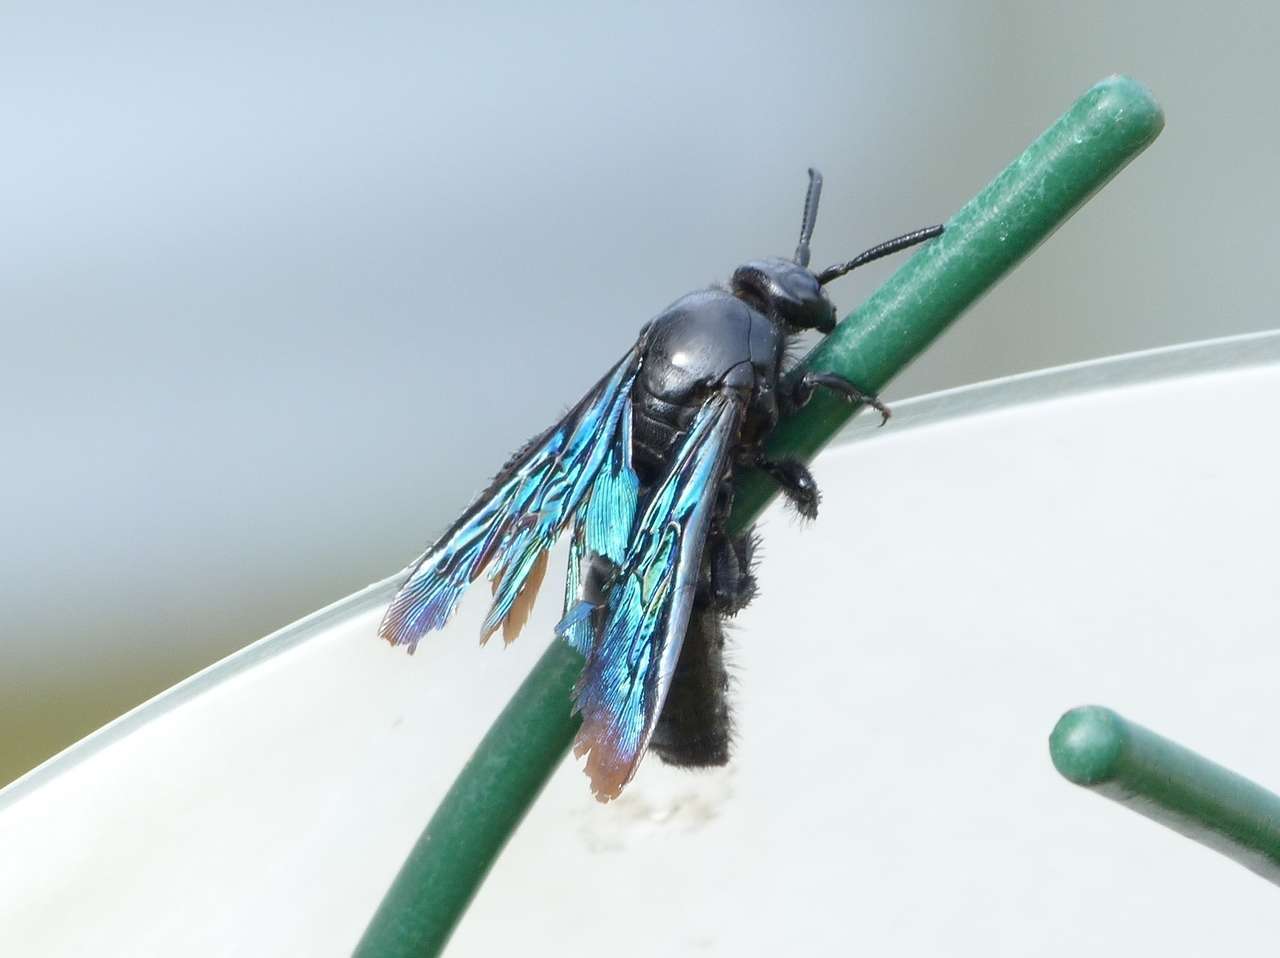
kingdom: Animalia
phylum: Arthropoda
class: Insecta
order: Hymenoptera
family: Scoliidae
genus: Austroscolia
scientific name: Austroscolia
